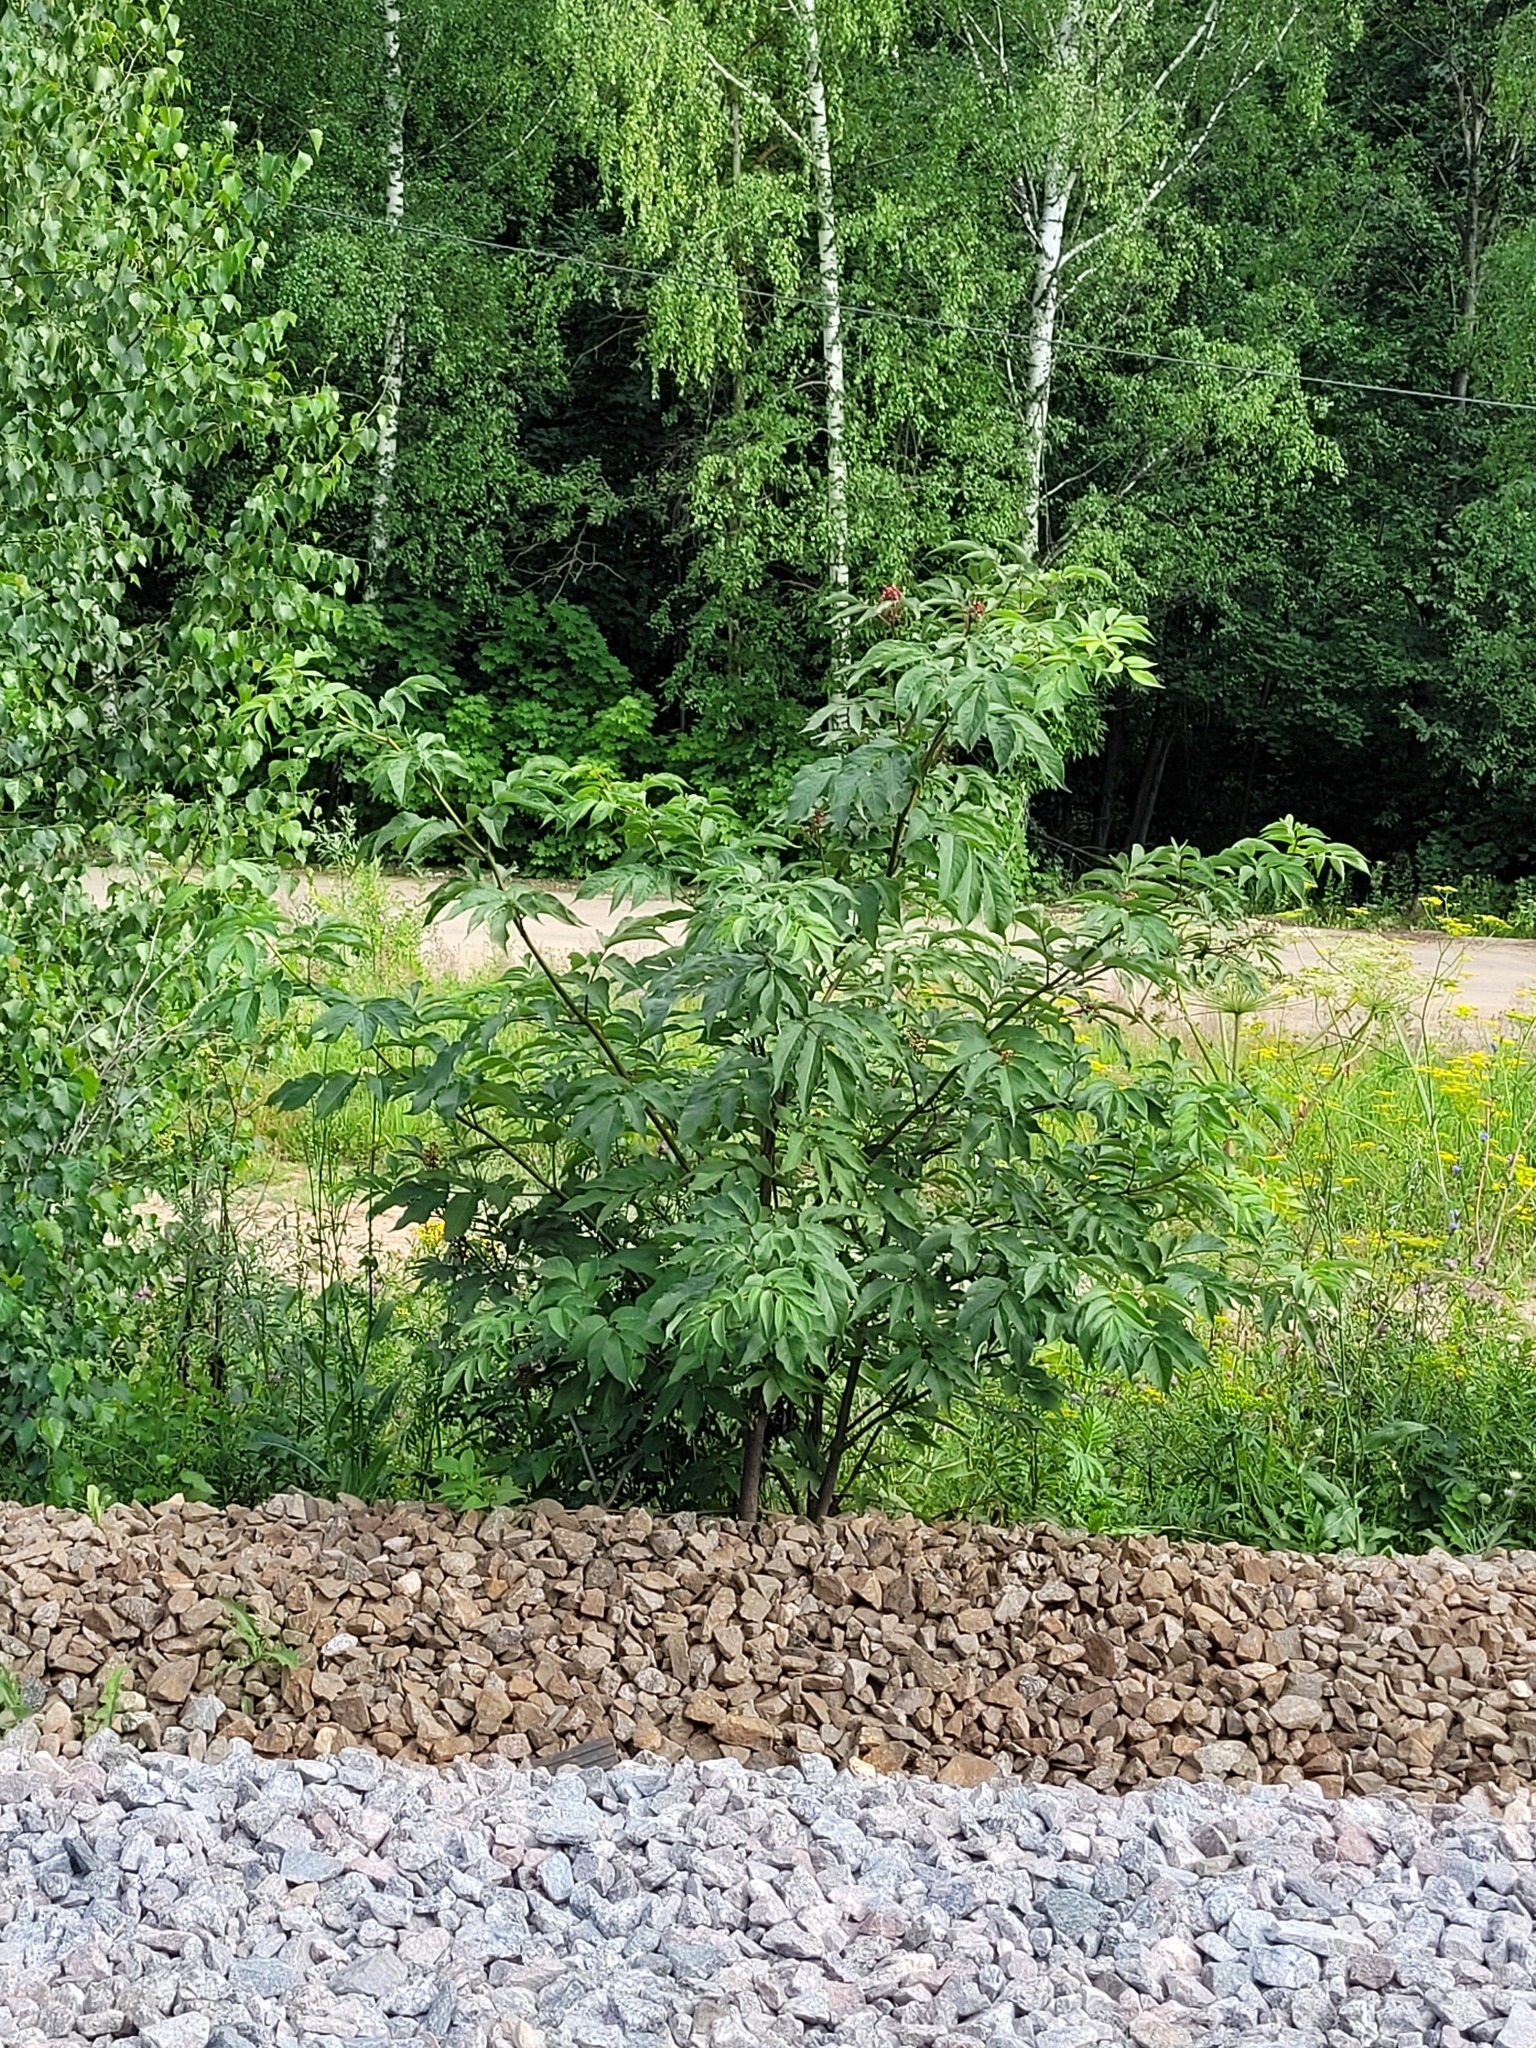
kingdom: Plantae
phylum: Tracheophyta
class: Magnoliopsida
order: Dipsacales
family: Viburnaceae
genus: Sambucus
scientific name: Sambucus racemosa
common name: Red-berried elder
